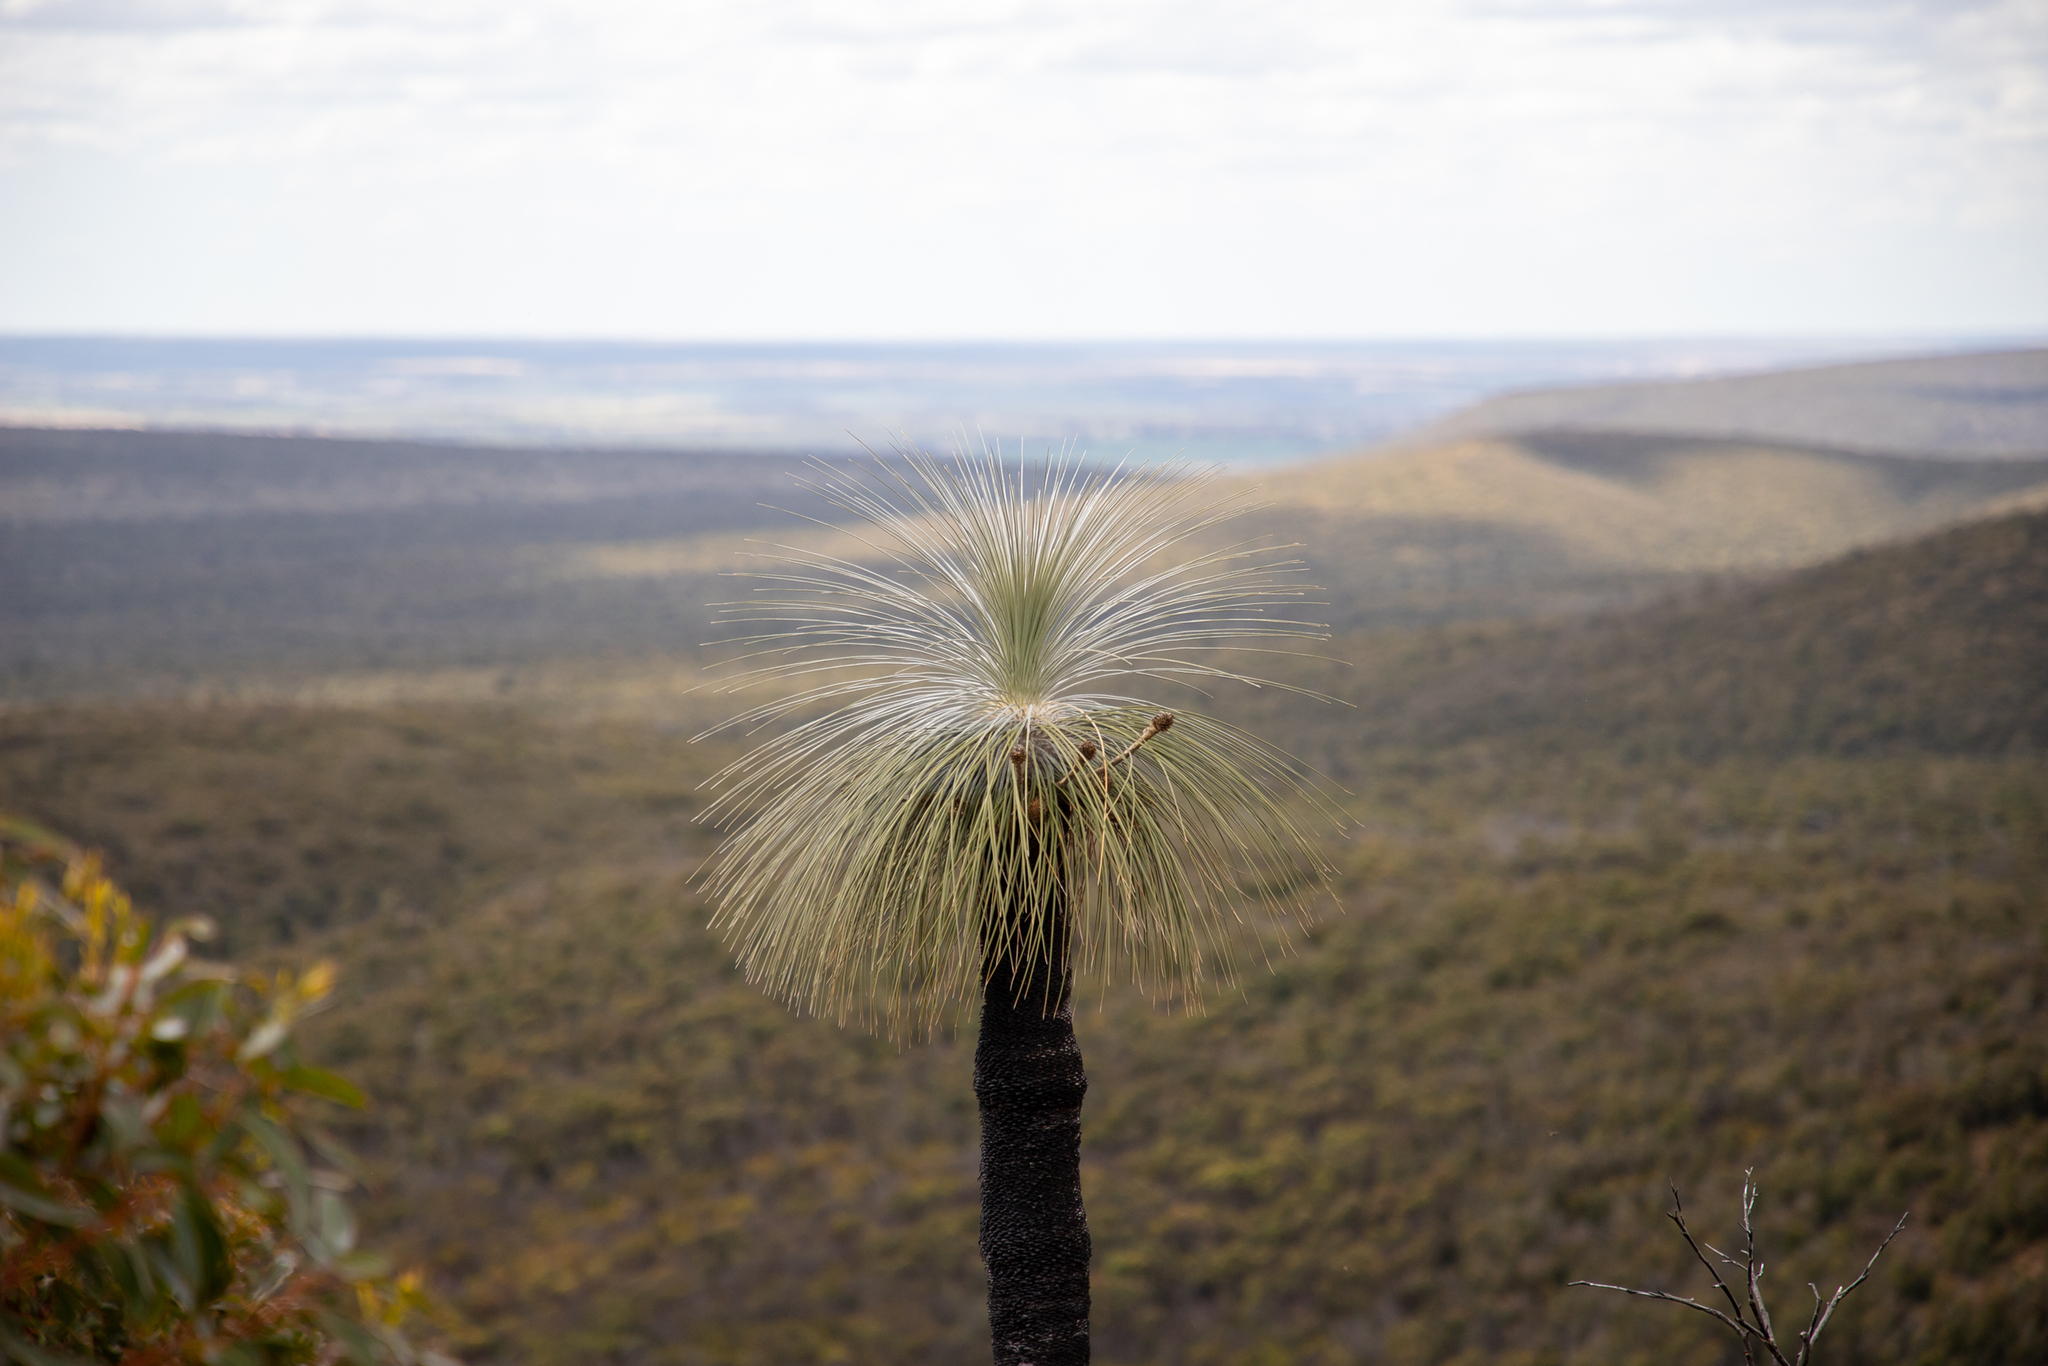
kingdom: Plantae
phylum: Tracheophyta
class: Liliopsida
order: Arecales
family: Dasypogonaceae
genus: Kingia
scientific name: Kingia australis
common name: Black gin
